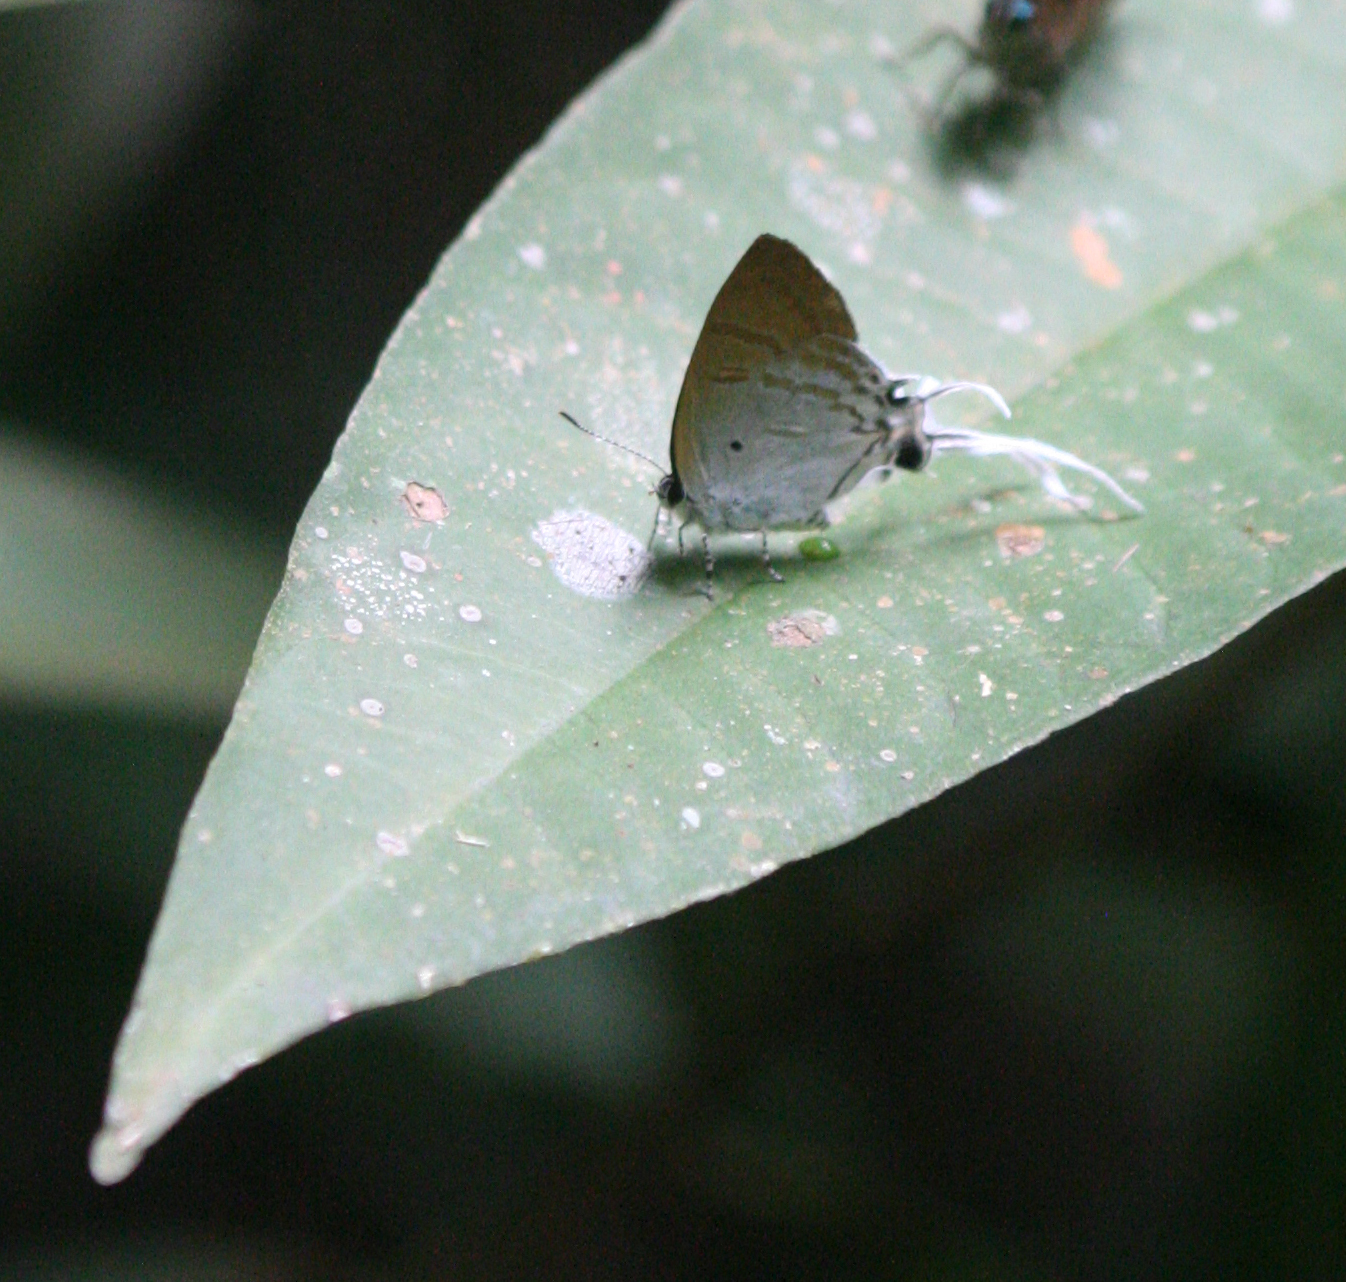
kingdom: Animalia
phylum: Arthropoda
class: Insecta
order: Lepidoptera
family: Lycaenidae
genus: Zeltus
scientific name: Zeltus amasa
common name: Fluffy tit
